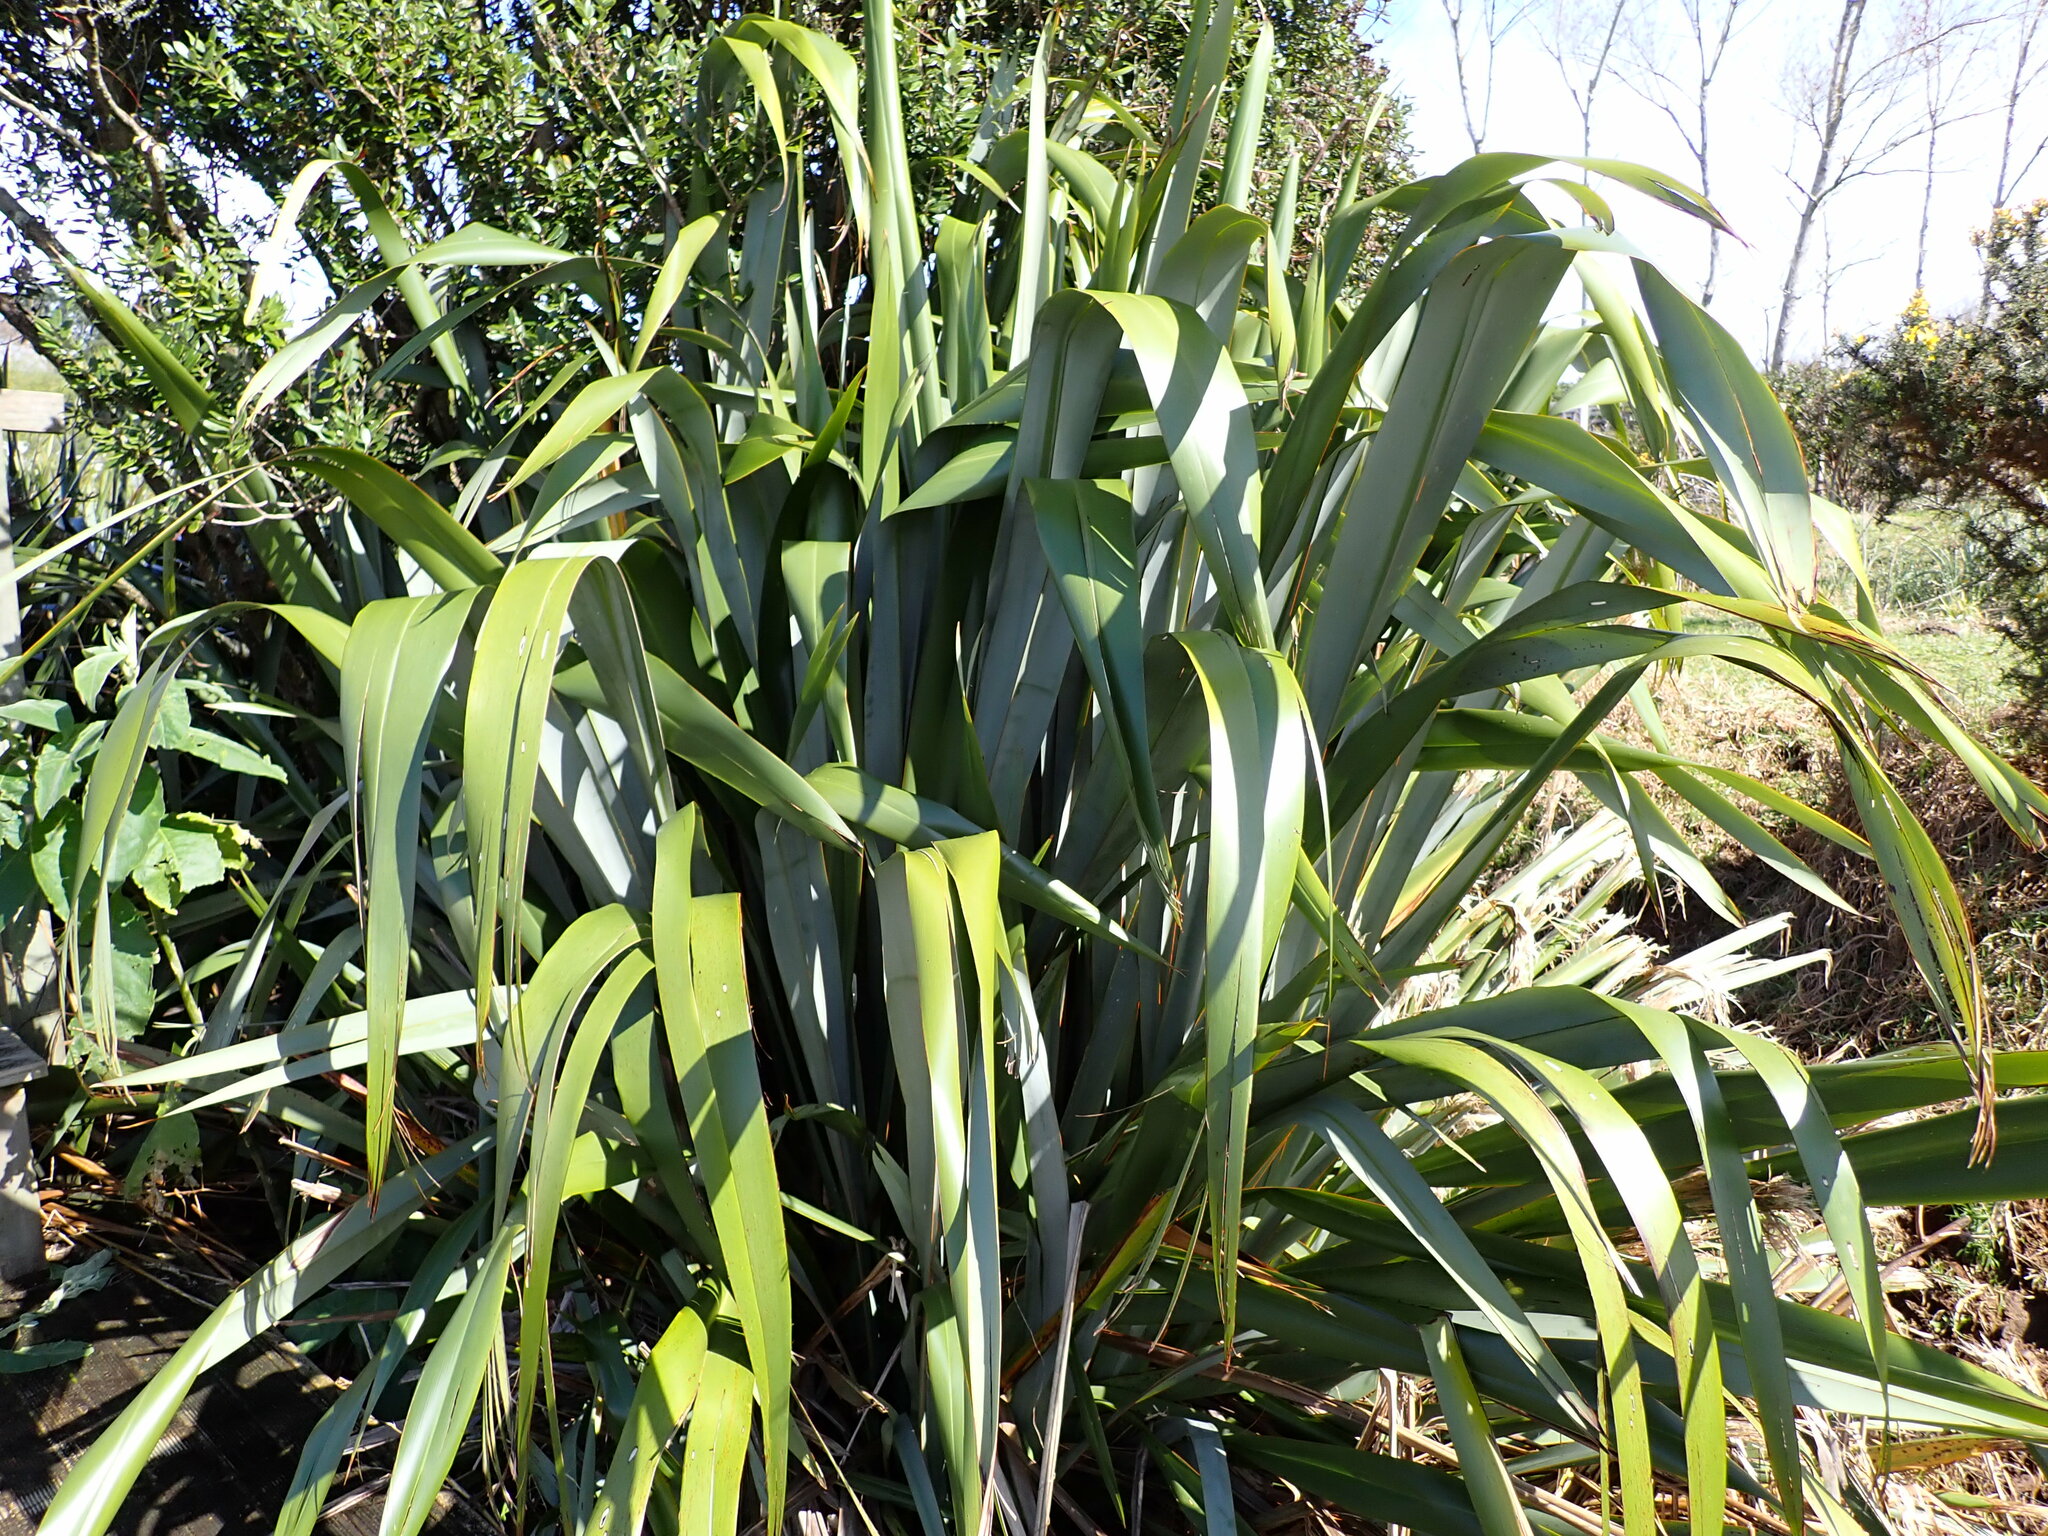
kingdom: Plantae
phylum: Tracheophyta
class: Liliopsida
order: Asparagales
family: Asphodelaceae
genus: Phormium
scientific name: Phormium tenax
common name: New zealand flax
